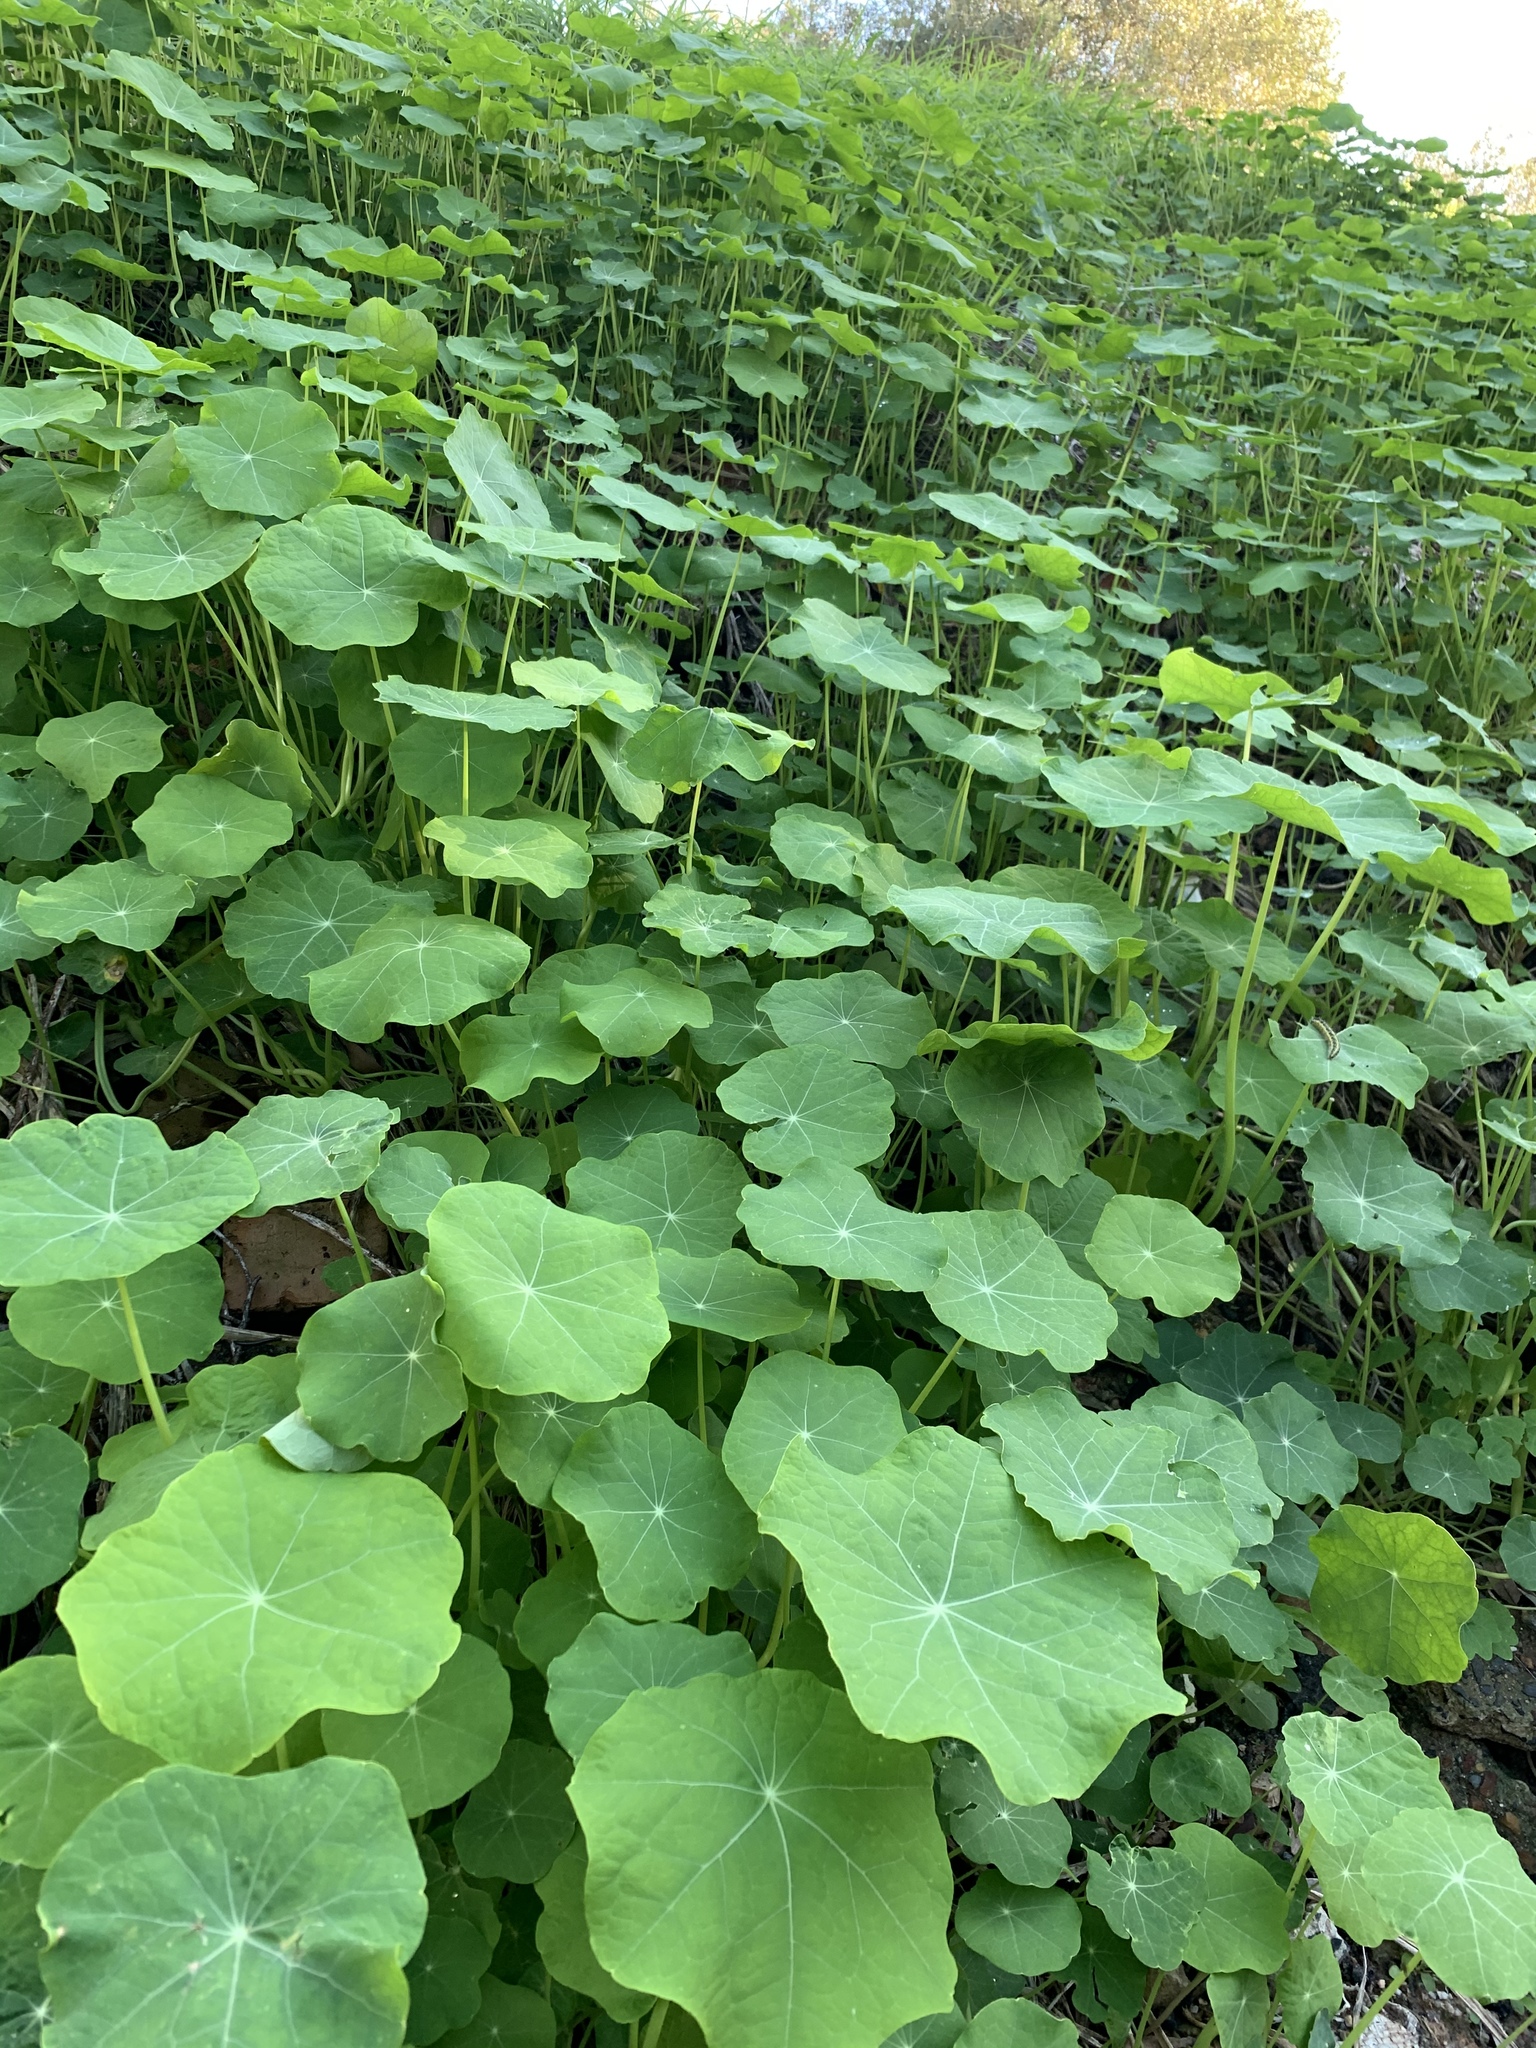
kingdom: Plantae
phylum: Tracheophyta
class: Magnoliopsida
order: Brassicales
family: Tropaeolaceae
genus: Tropaeolum
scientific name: Tropaeolum majus
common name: Nasturtium
